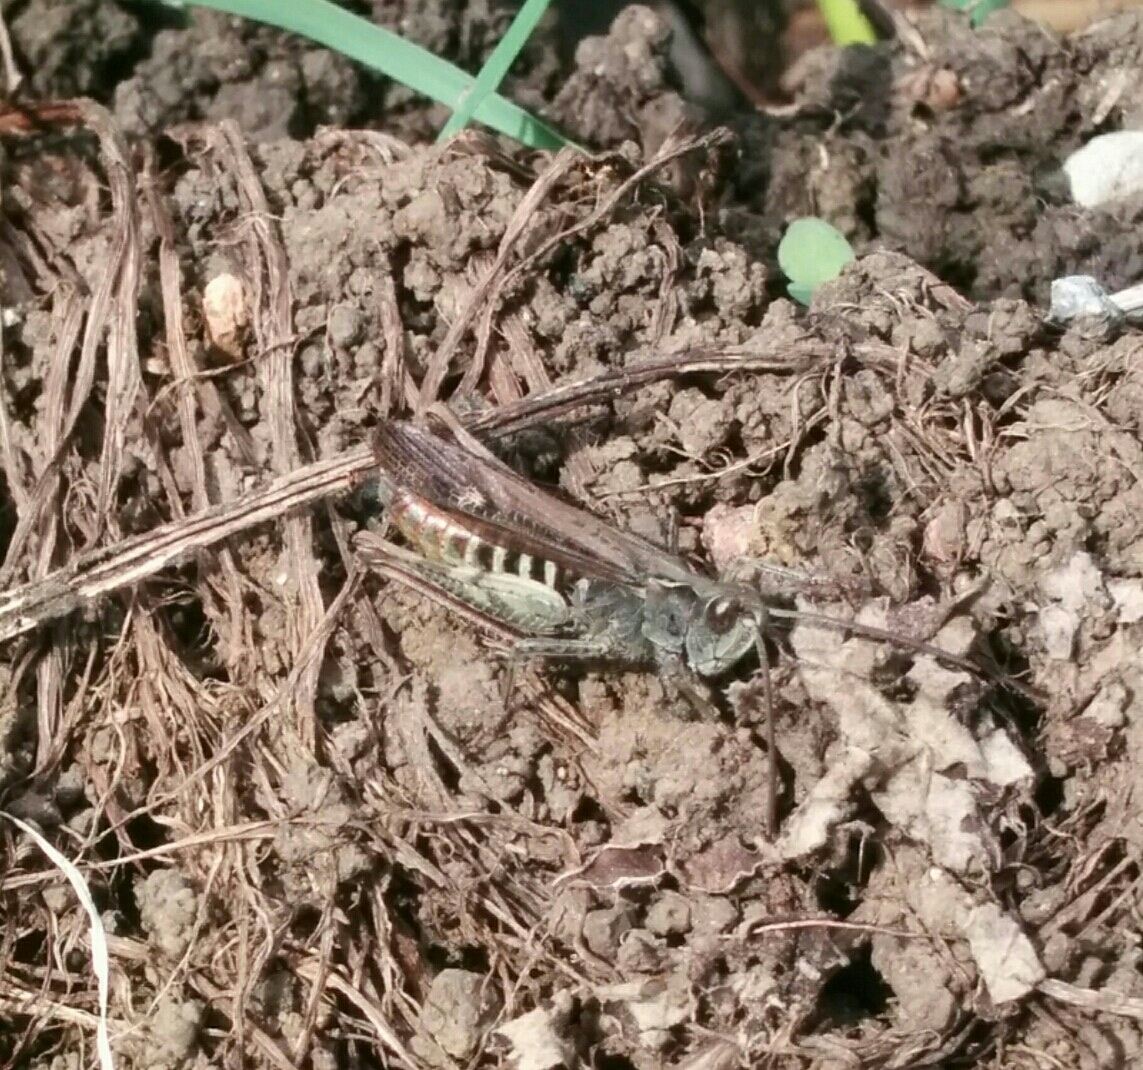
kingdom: Animalia
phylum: Arthropoda
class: Insecta
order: Orthoptera
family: Acrididae
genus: Chorthippus
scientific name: Chorthippus brunneus
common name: Field grasshopper
